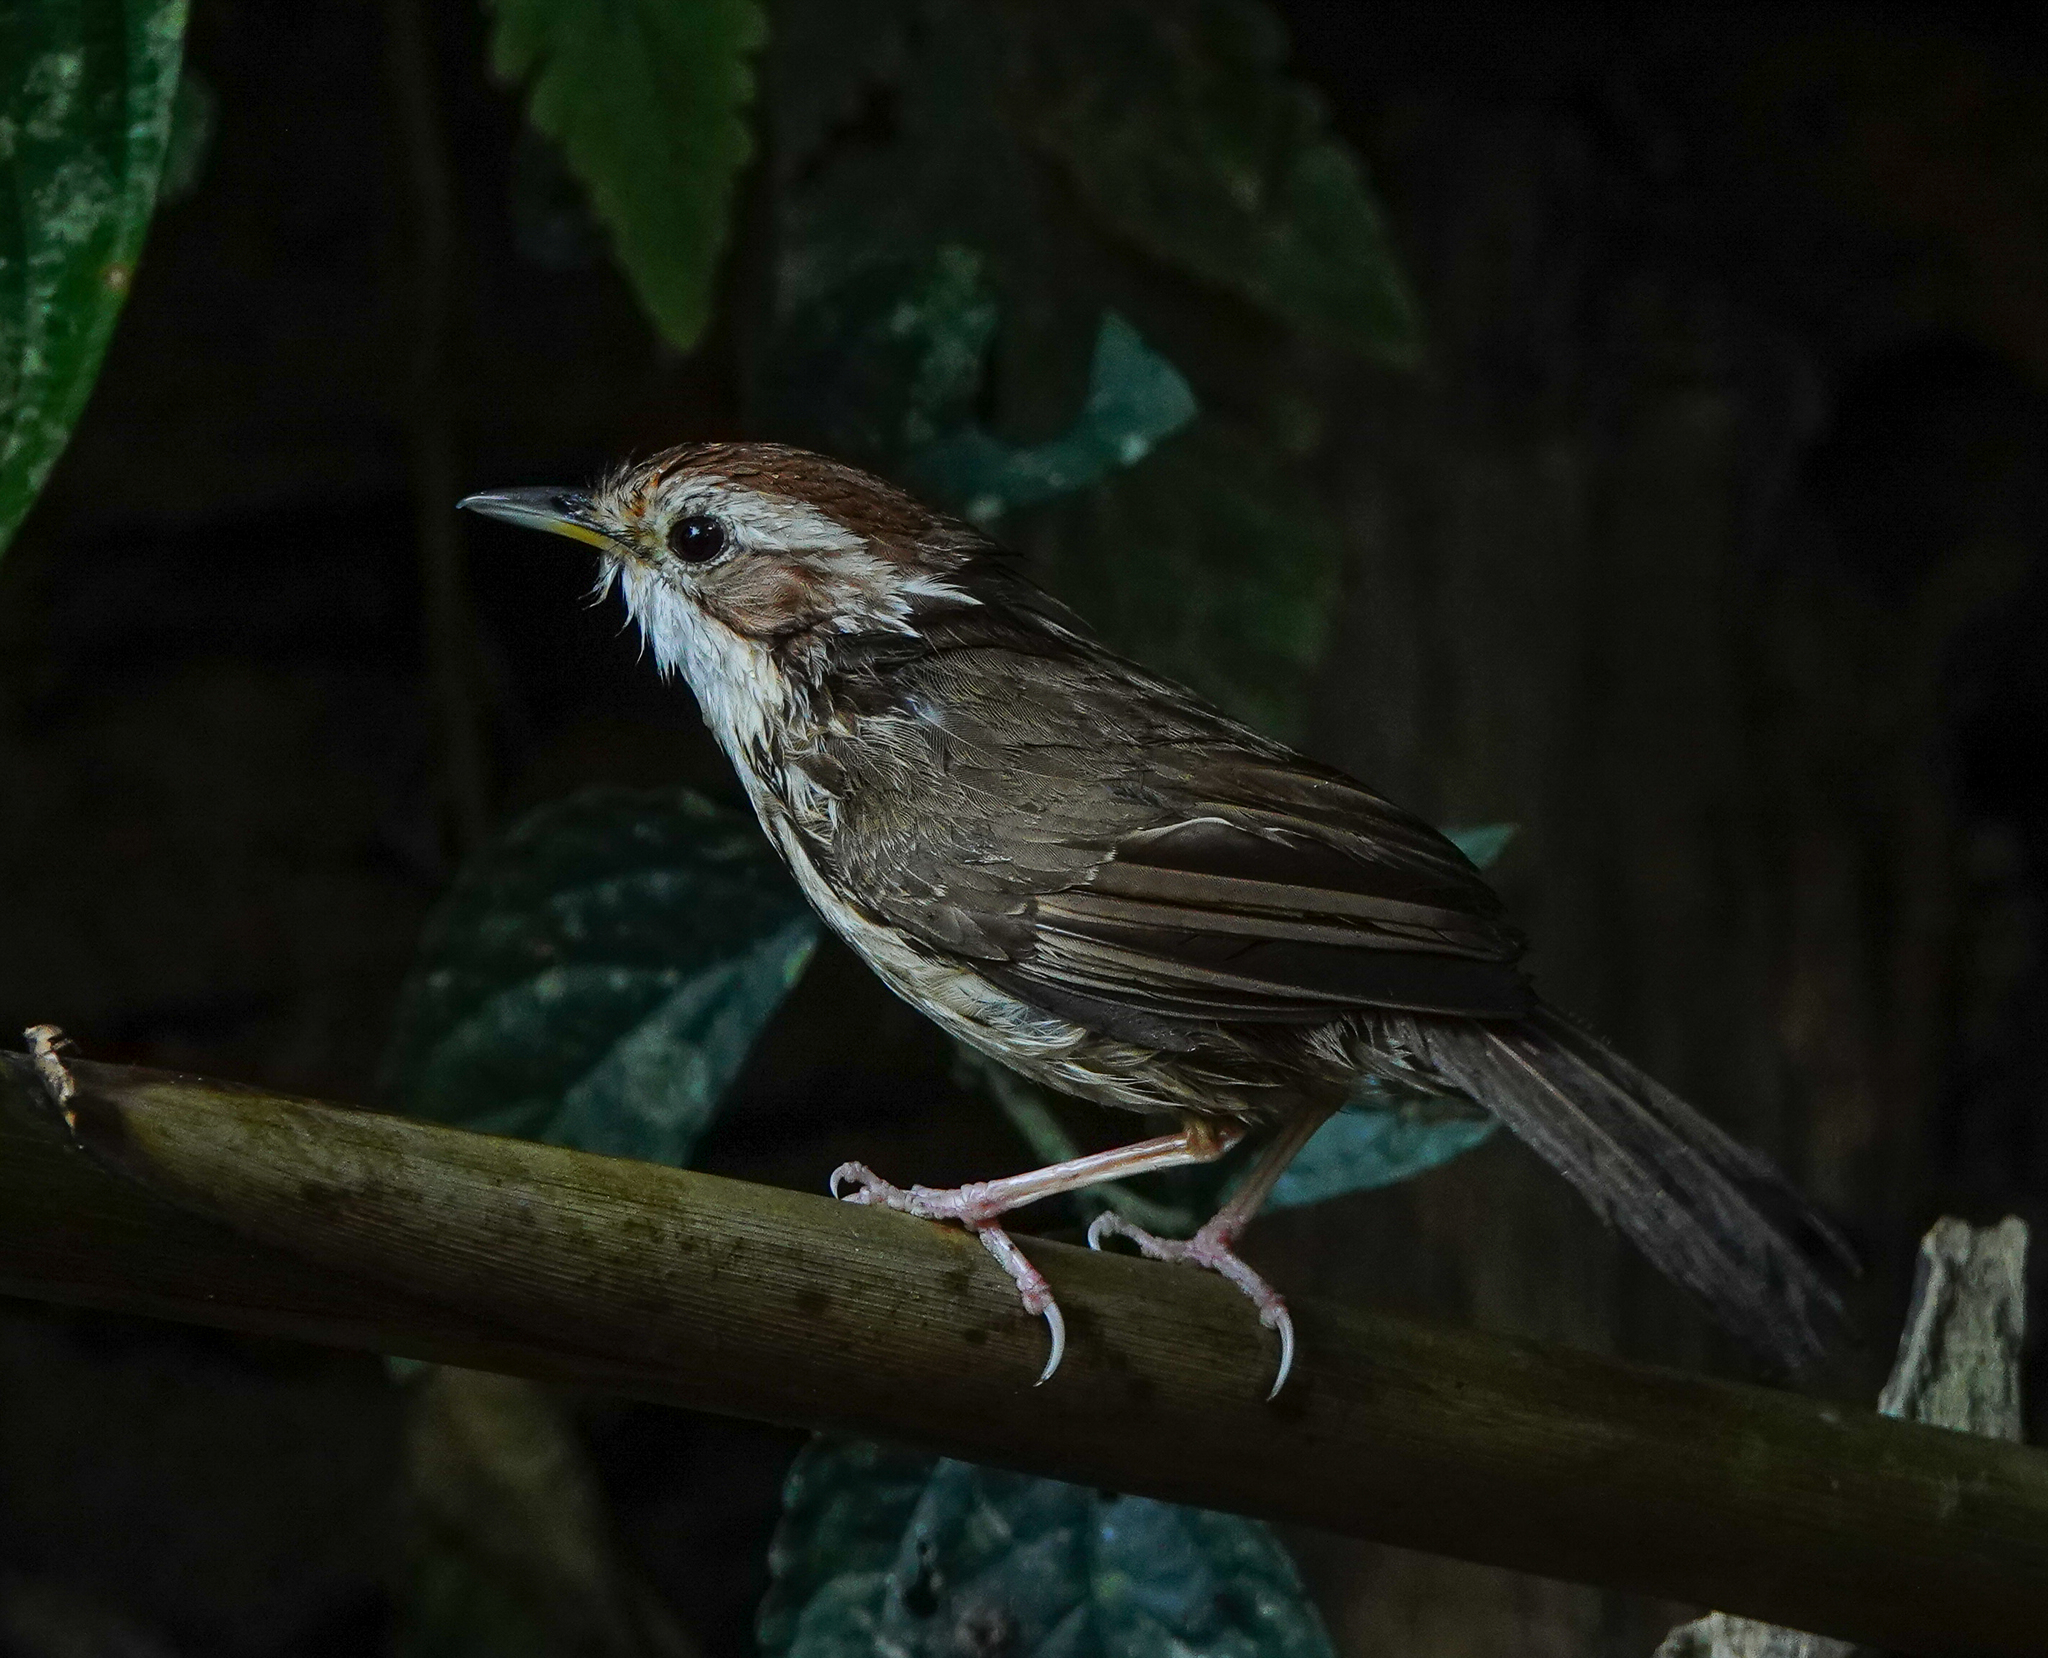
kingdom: Animalia
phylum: Chordata
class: Aves
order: Passeriformes
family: Pellorneidae
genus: Pellorneum
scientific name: Pellorneum ruficeps
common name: Puff-throated babbler
